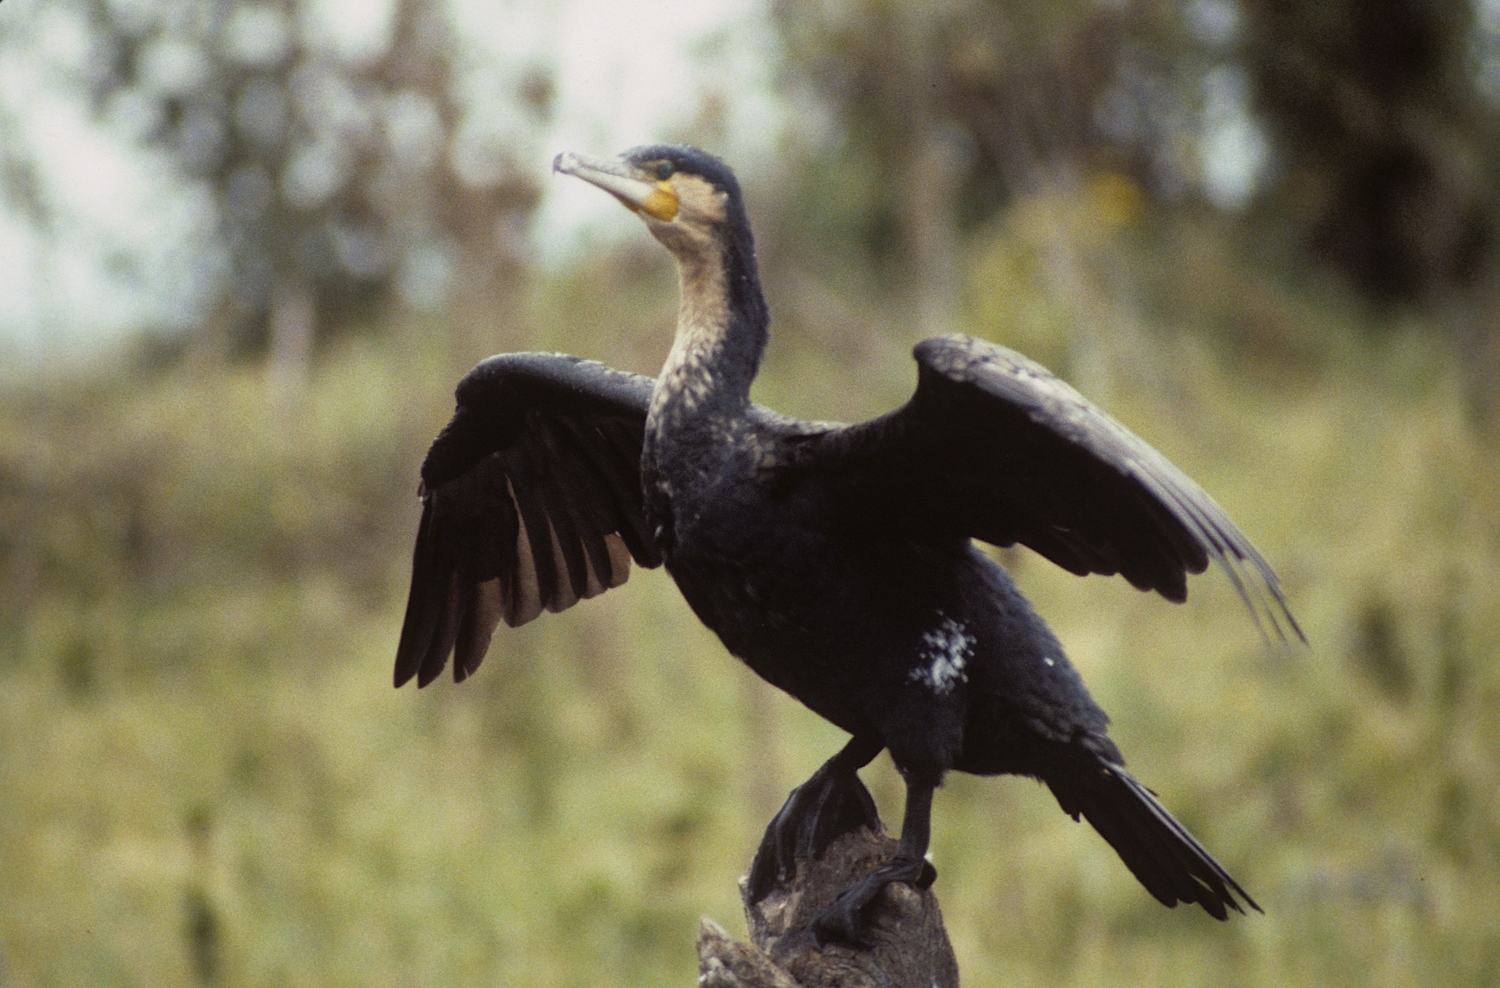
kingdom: Animalia
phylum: Chordata
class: Aves
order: Suliformes
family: Phalacrocoracidae
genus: Phalacrocorax
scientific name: Phalacrocorax carbo
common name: Great cormorant
